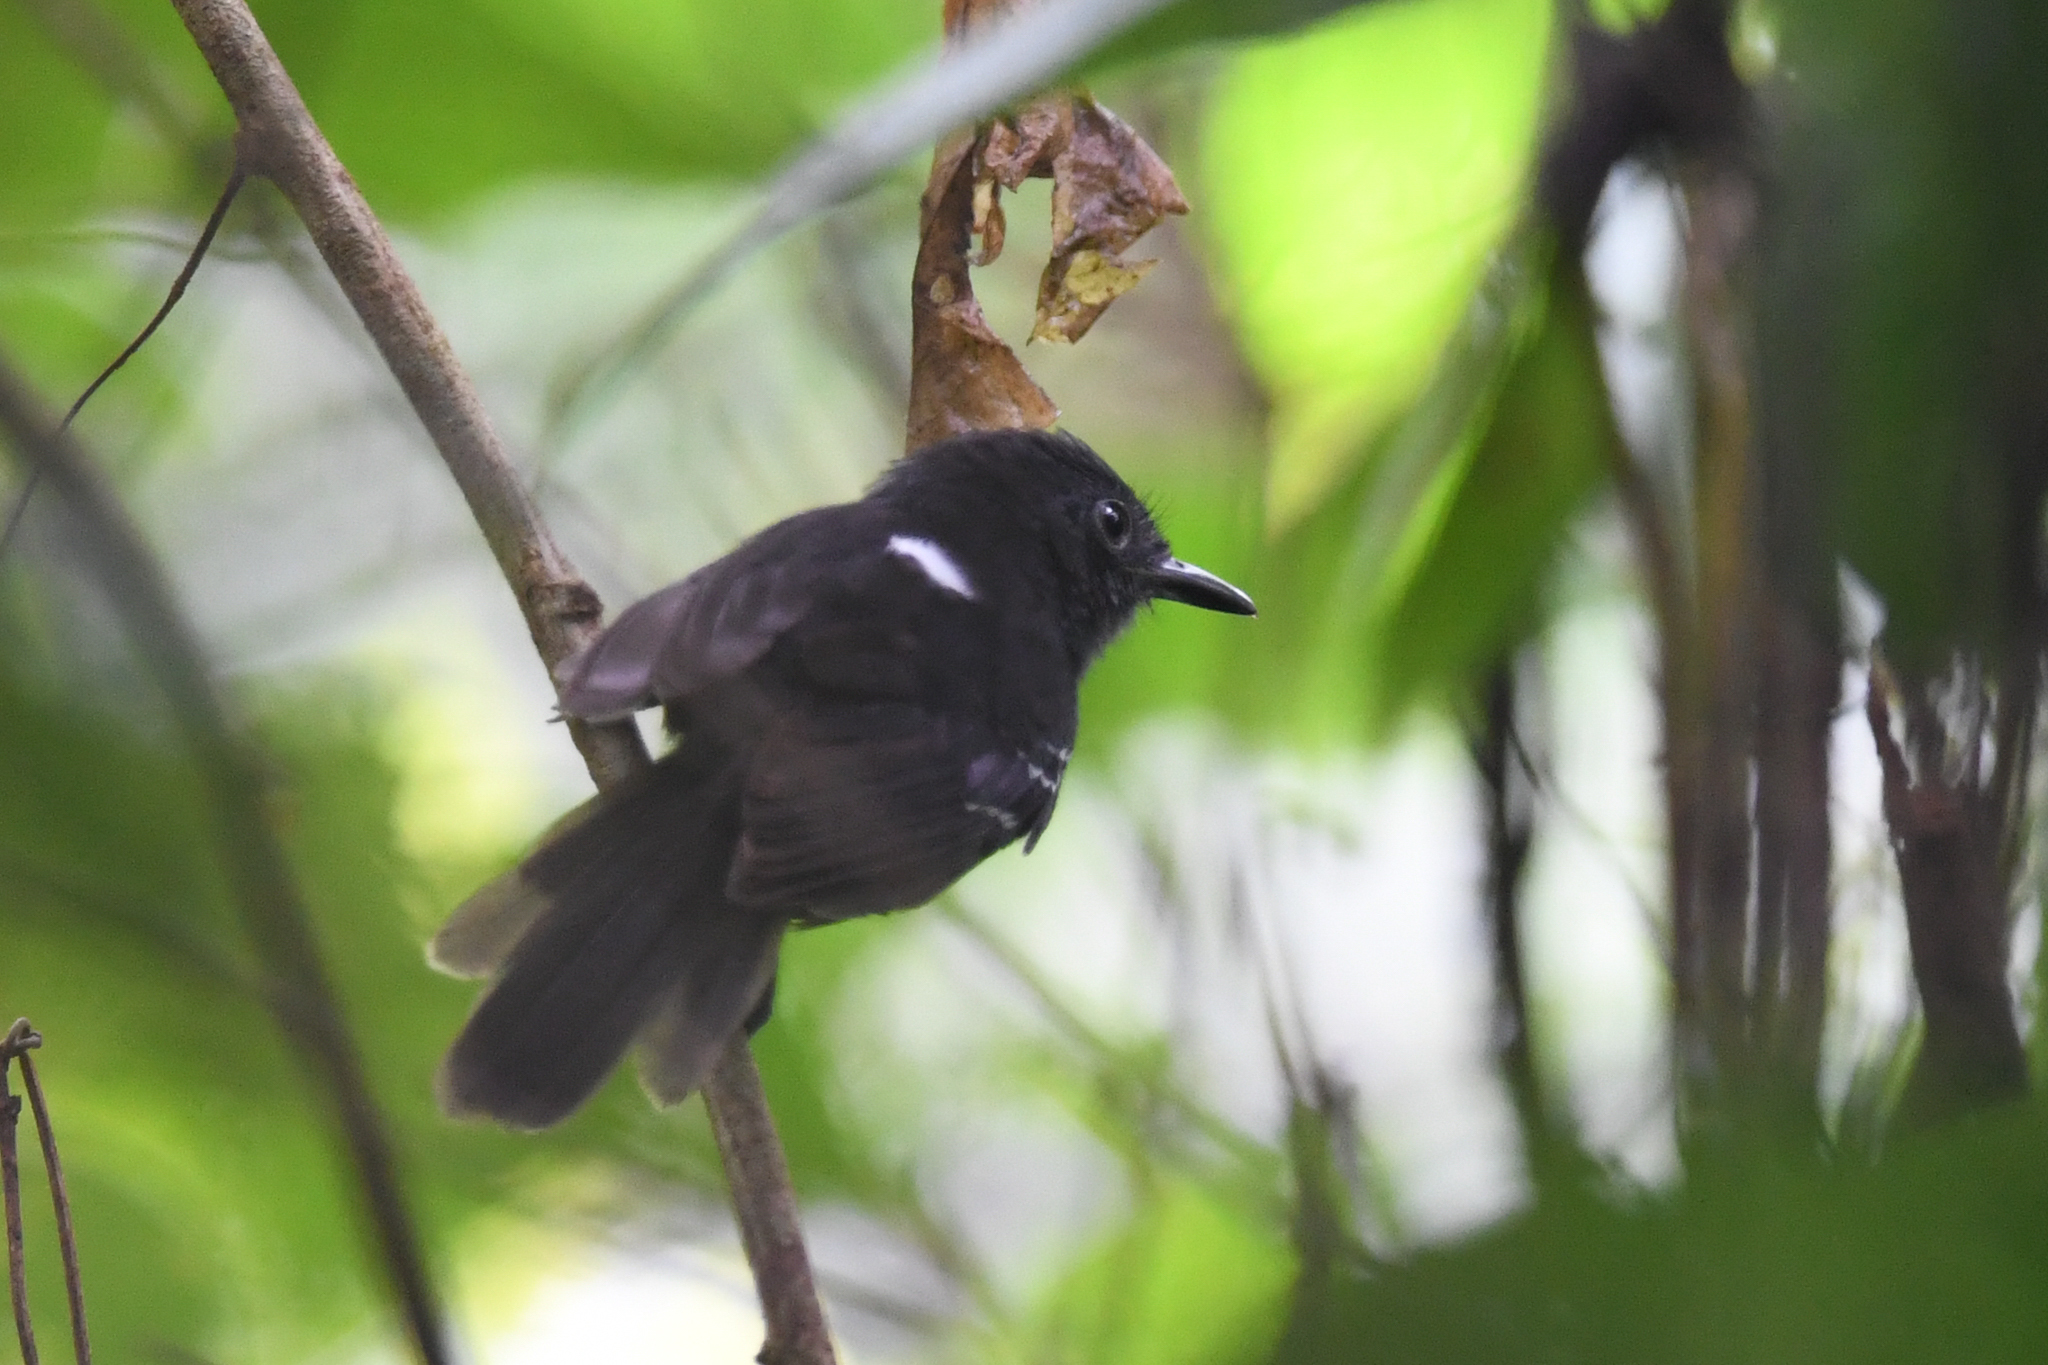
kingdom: Animalia
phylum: Chordata
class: Aves
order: Passeriformes
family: Thamnophilidae
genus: Cercomacra
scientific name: Cercomacra tyrannina
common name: Dusky antbird
